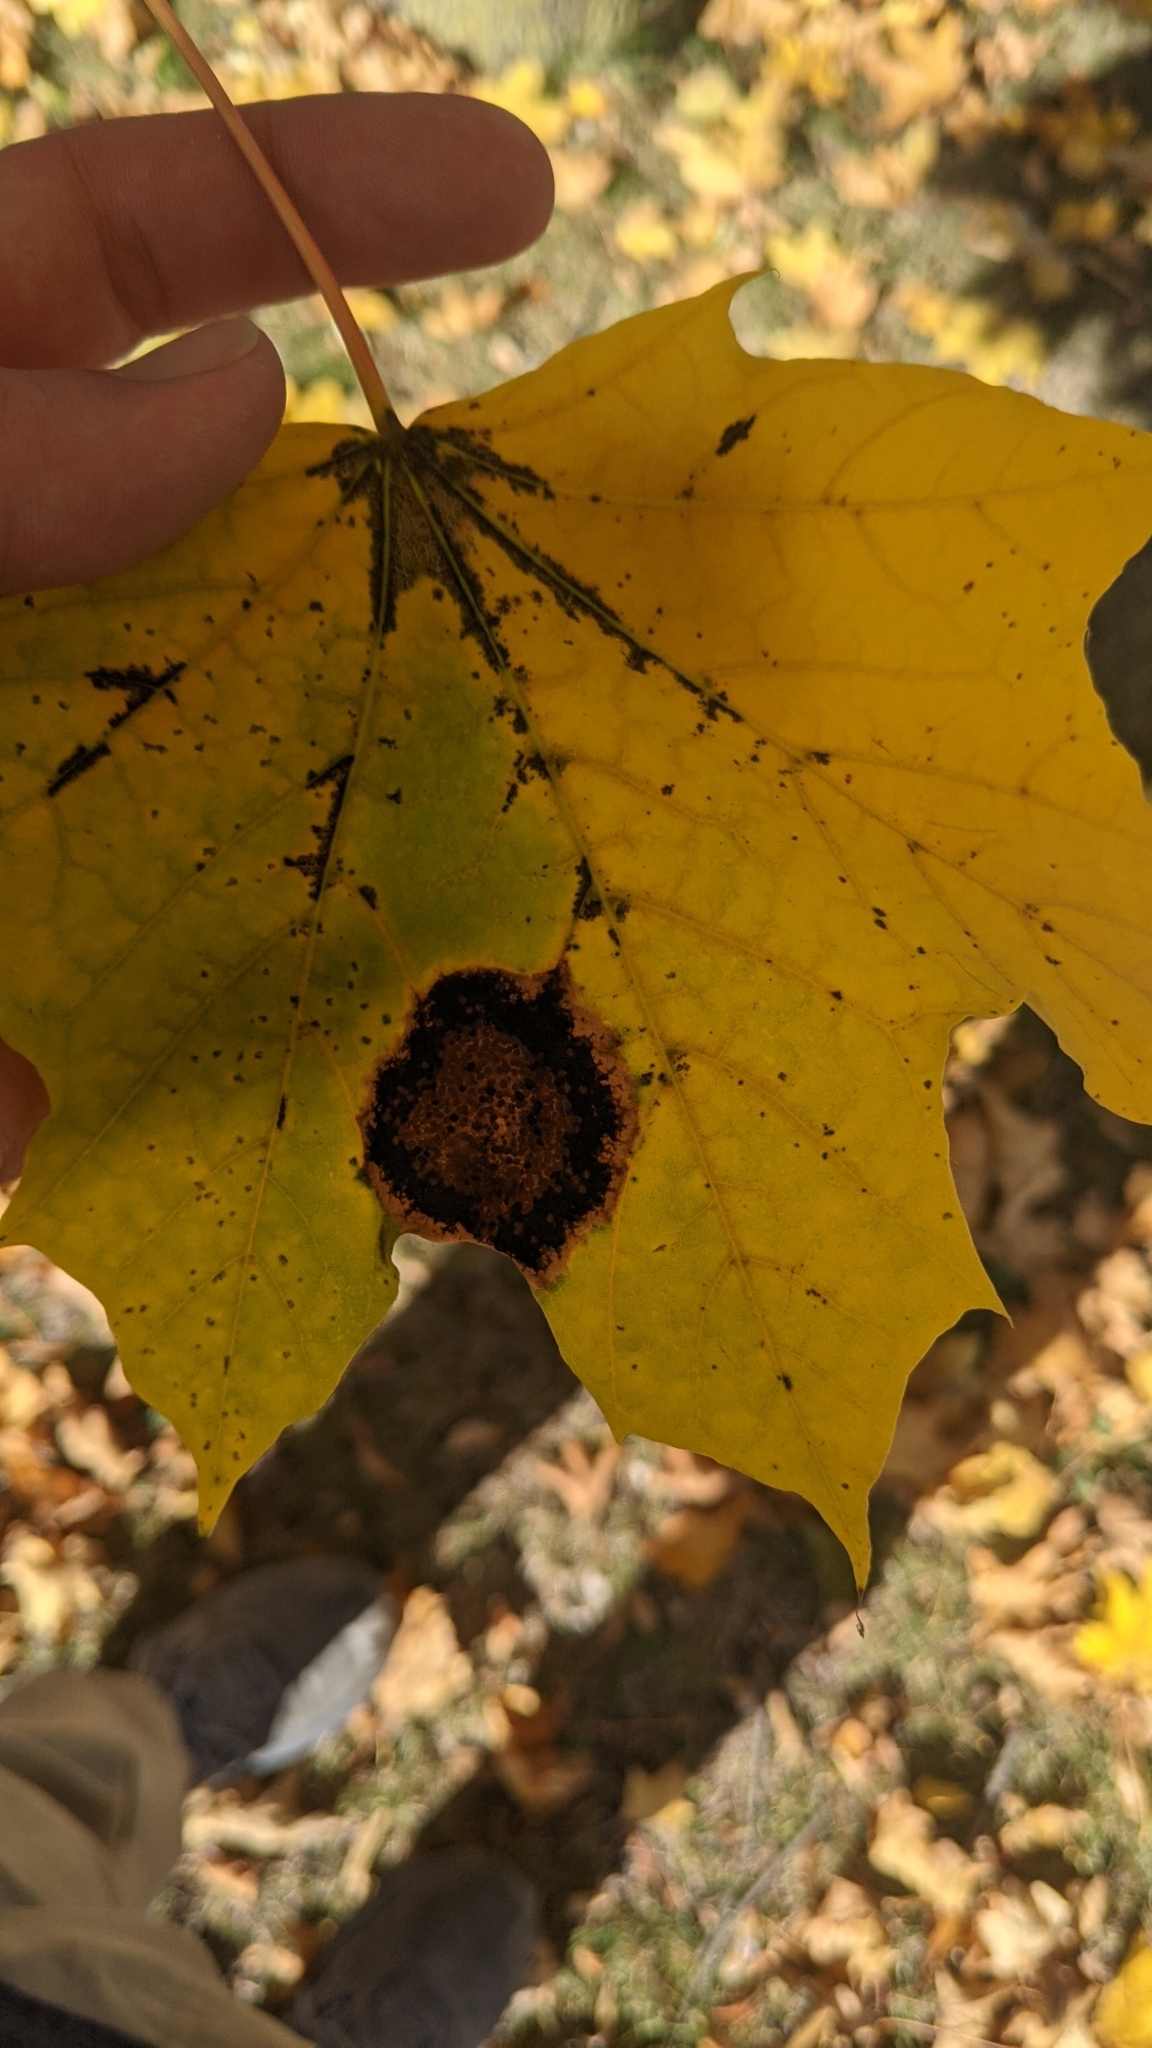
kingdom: Fungi
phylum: Ascomycota
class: Leotiomycetes
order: Rhytismatales
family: Rhytismataceae
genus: Rhytisma
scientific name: Rhytisma acerinum
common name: European tar spot
